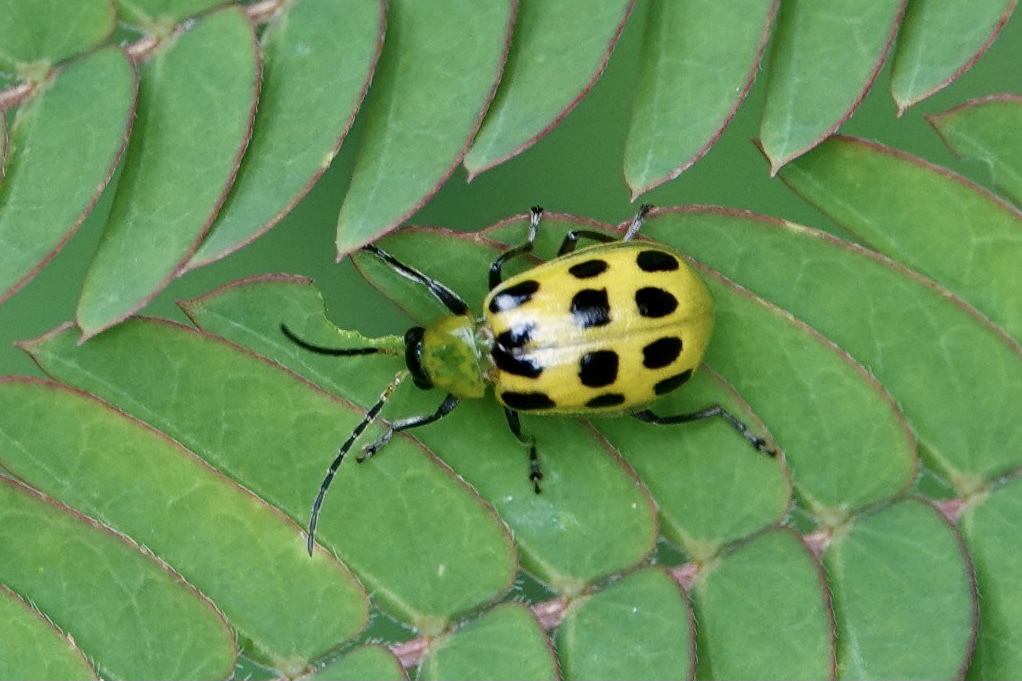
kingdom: Animalia
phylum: Arthropoda
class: Insecta
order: Coleoptera
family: Chrysomelidae
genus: Diabrotica
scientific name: Diabrotica undecimpunctata
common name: Spotted cucumber beetle
